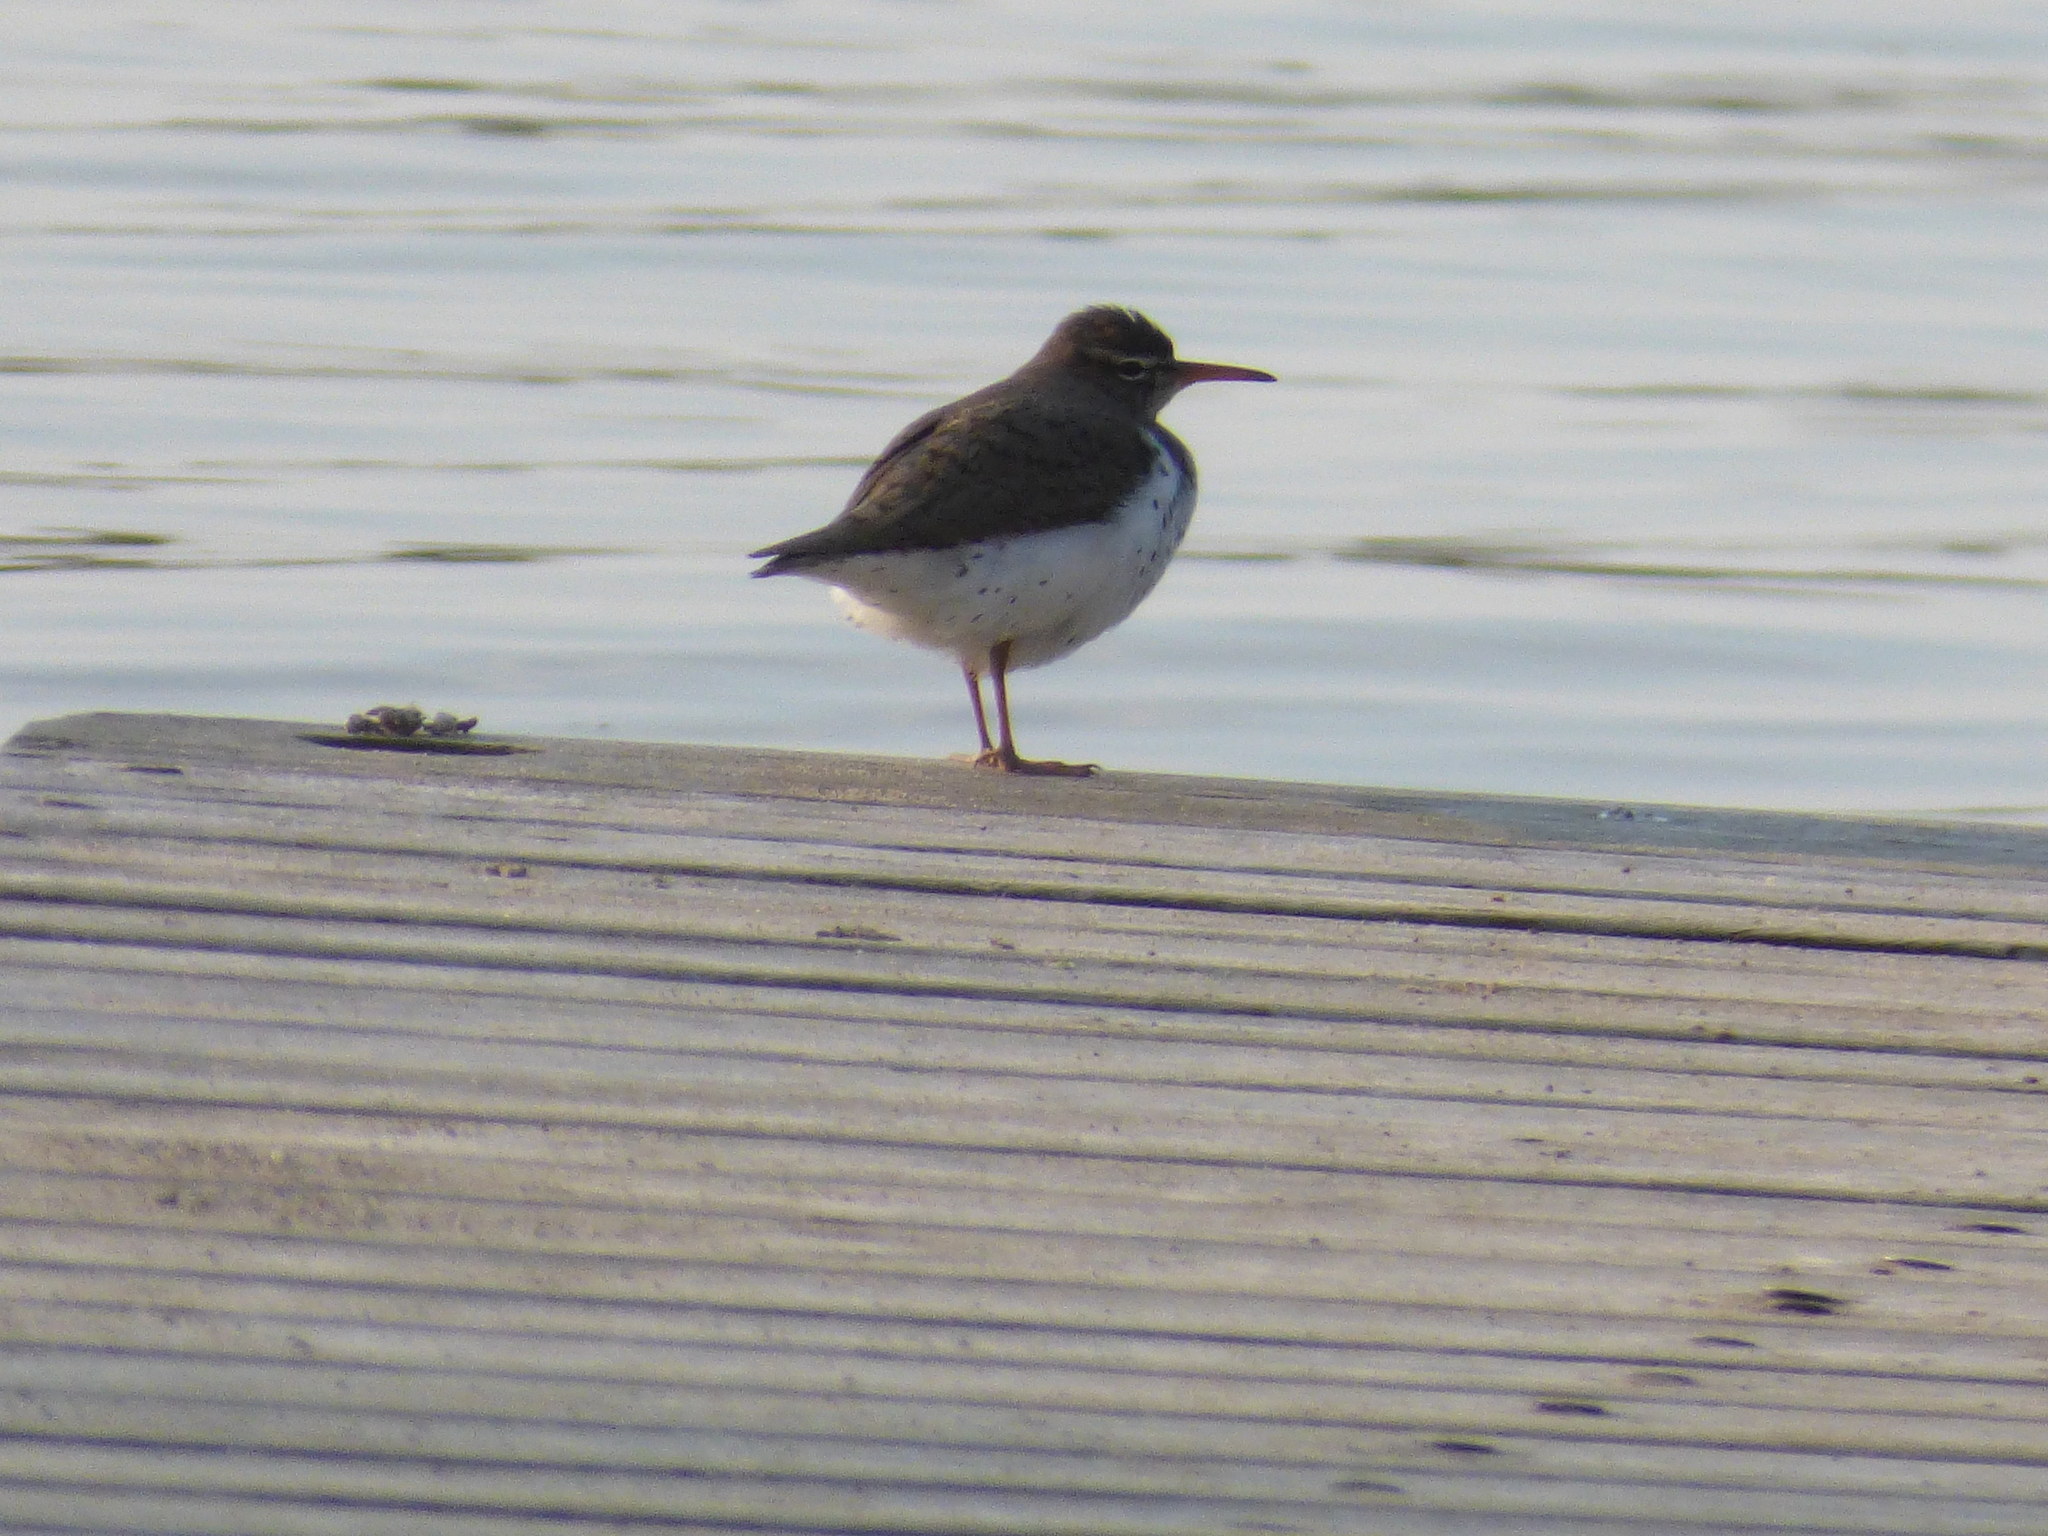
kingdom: Animalia
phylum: Chordata
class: Aves
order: Charadriiformes
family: Scolopacidae
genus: Actitis
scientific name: Actitis macularius
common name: Spotted sandpiper
